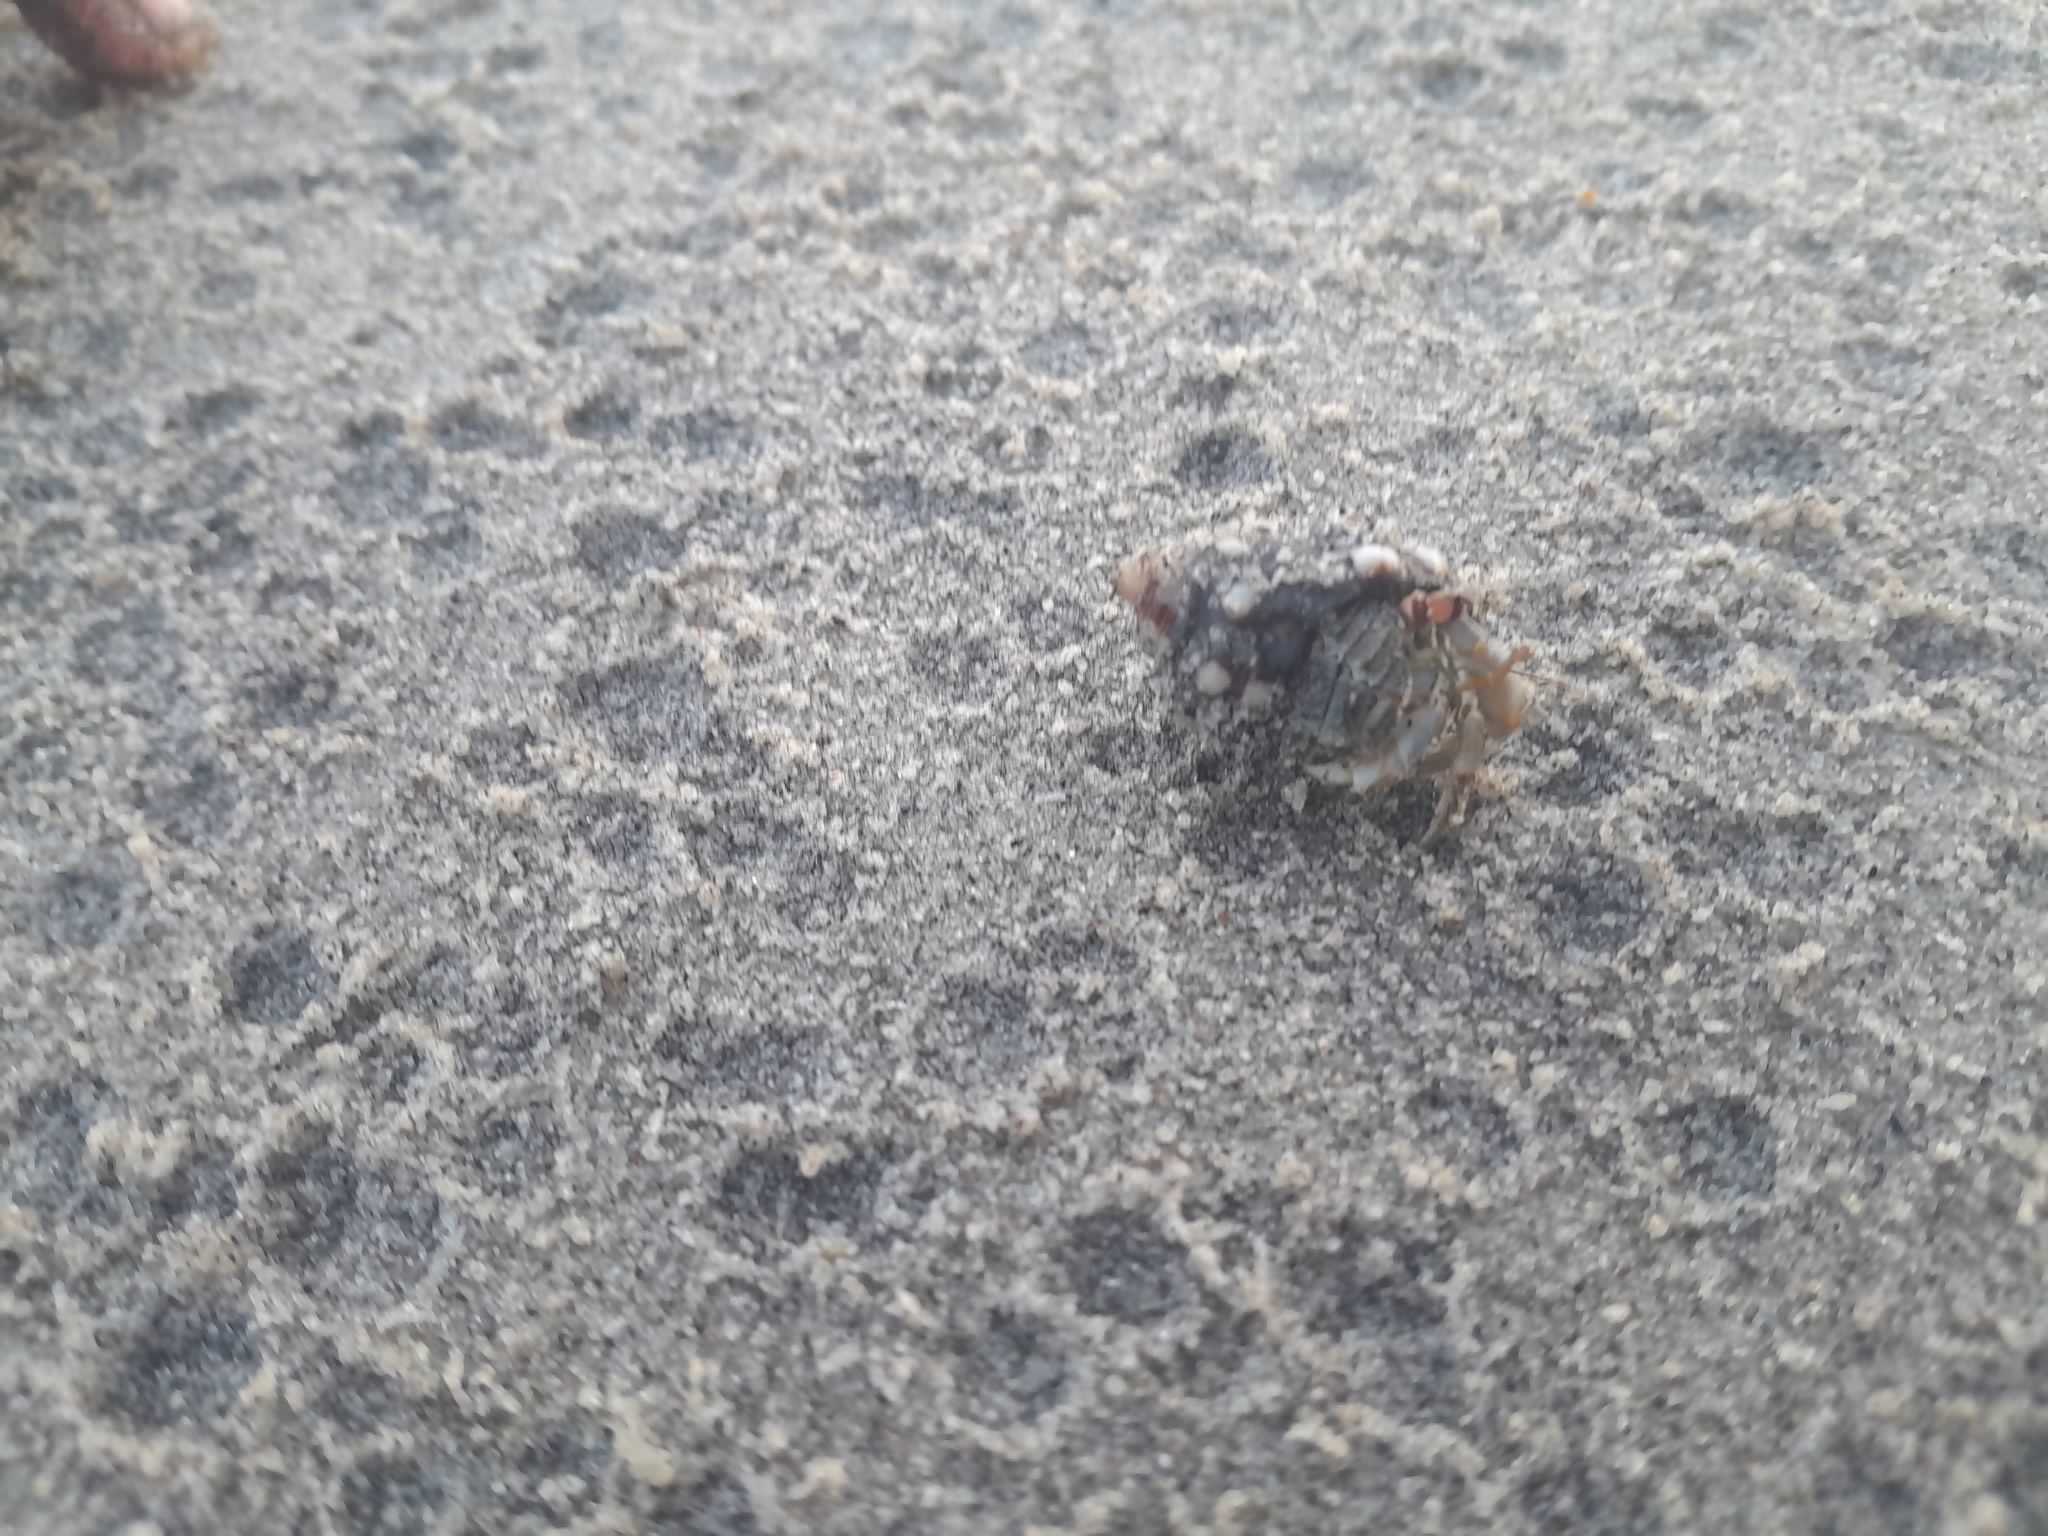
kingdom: Animalia
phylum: Arthropoda
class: Malacostraca
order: Decapoda
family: Coenobitidae
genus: Coenobita
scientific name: Coenobita compressus
